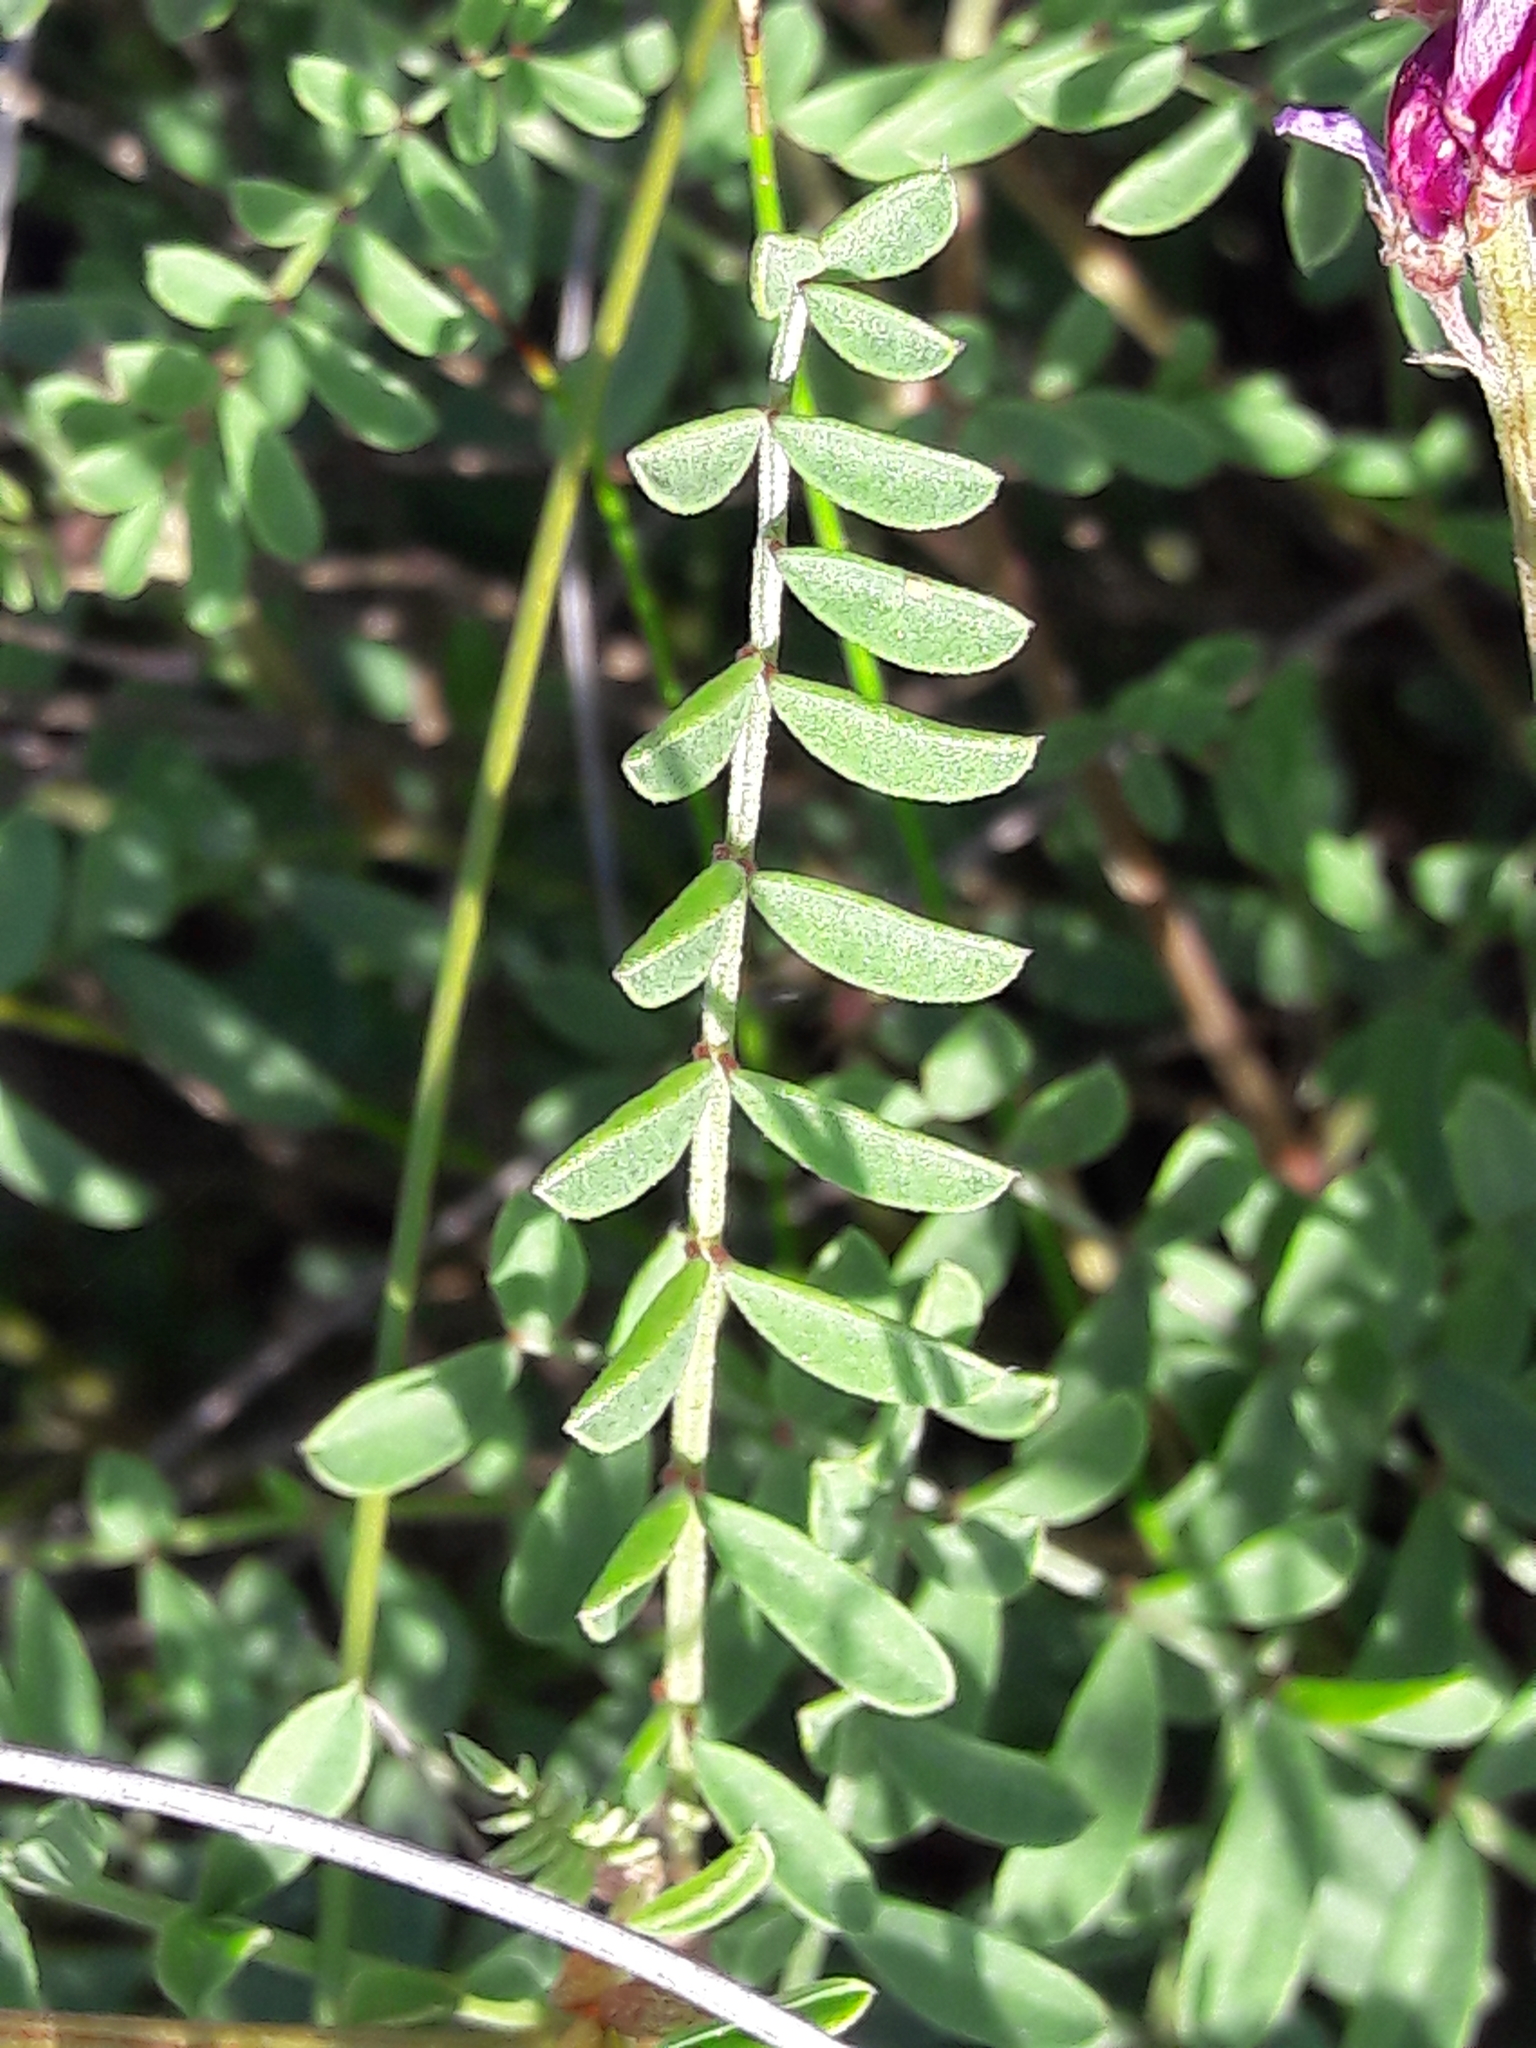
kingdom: Plantae
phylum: Tracheophyta
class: Magnoliopsida
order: Fabales
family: Fabaceae
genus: Hedysarum
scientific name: Hedysarum boveanum
